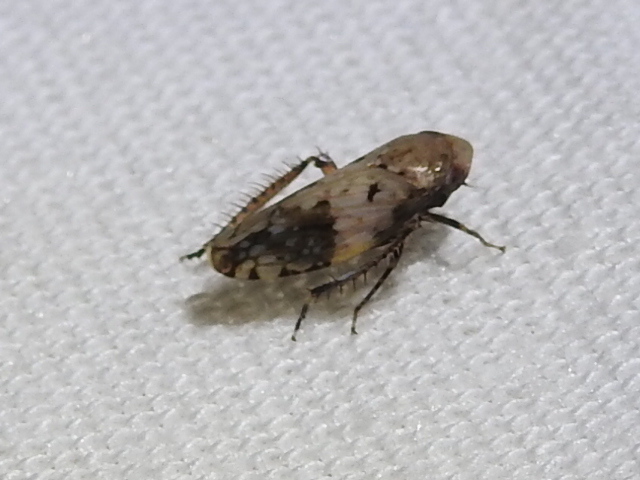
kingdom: Animalia
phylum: Arthropoda
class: Insecta
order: Hemiptera
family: Cicadellidae
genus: Menosoma
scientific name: Menosoma cinctum
